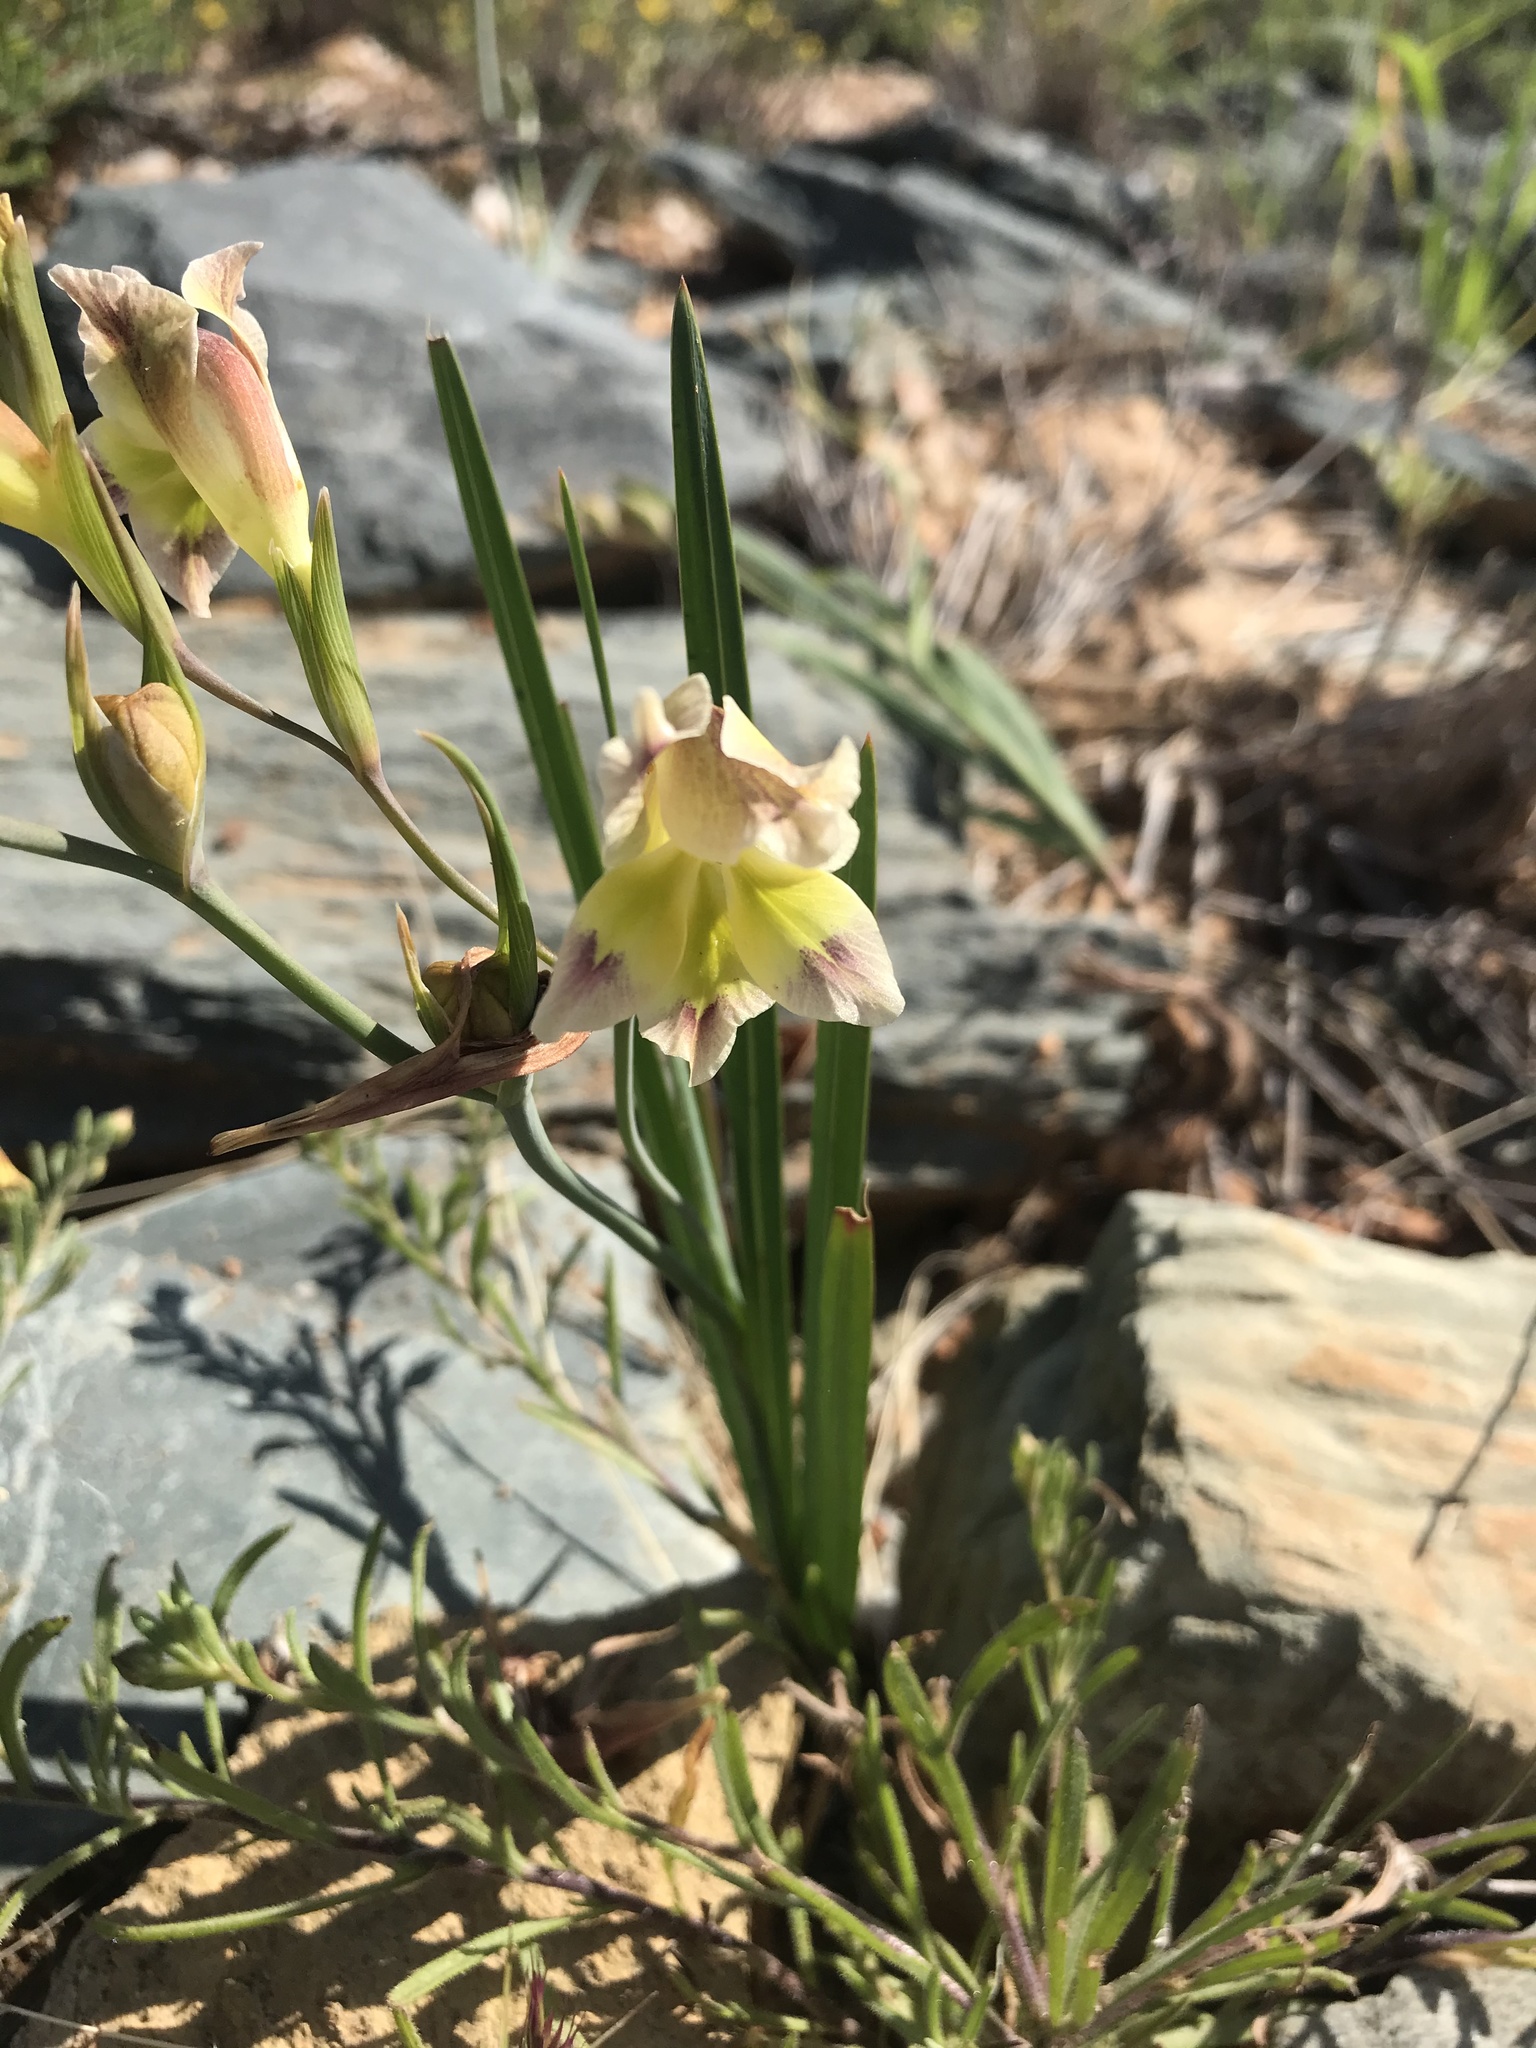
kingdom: Plantae
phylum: Tracheophyta
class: Liliopsida
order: Asparagales
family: Iridaceae
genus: Gladiolus
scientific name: Gladiolus scullyi
